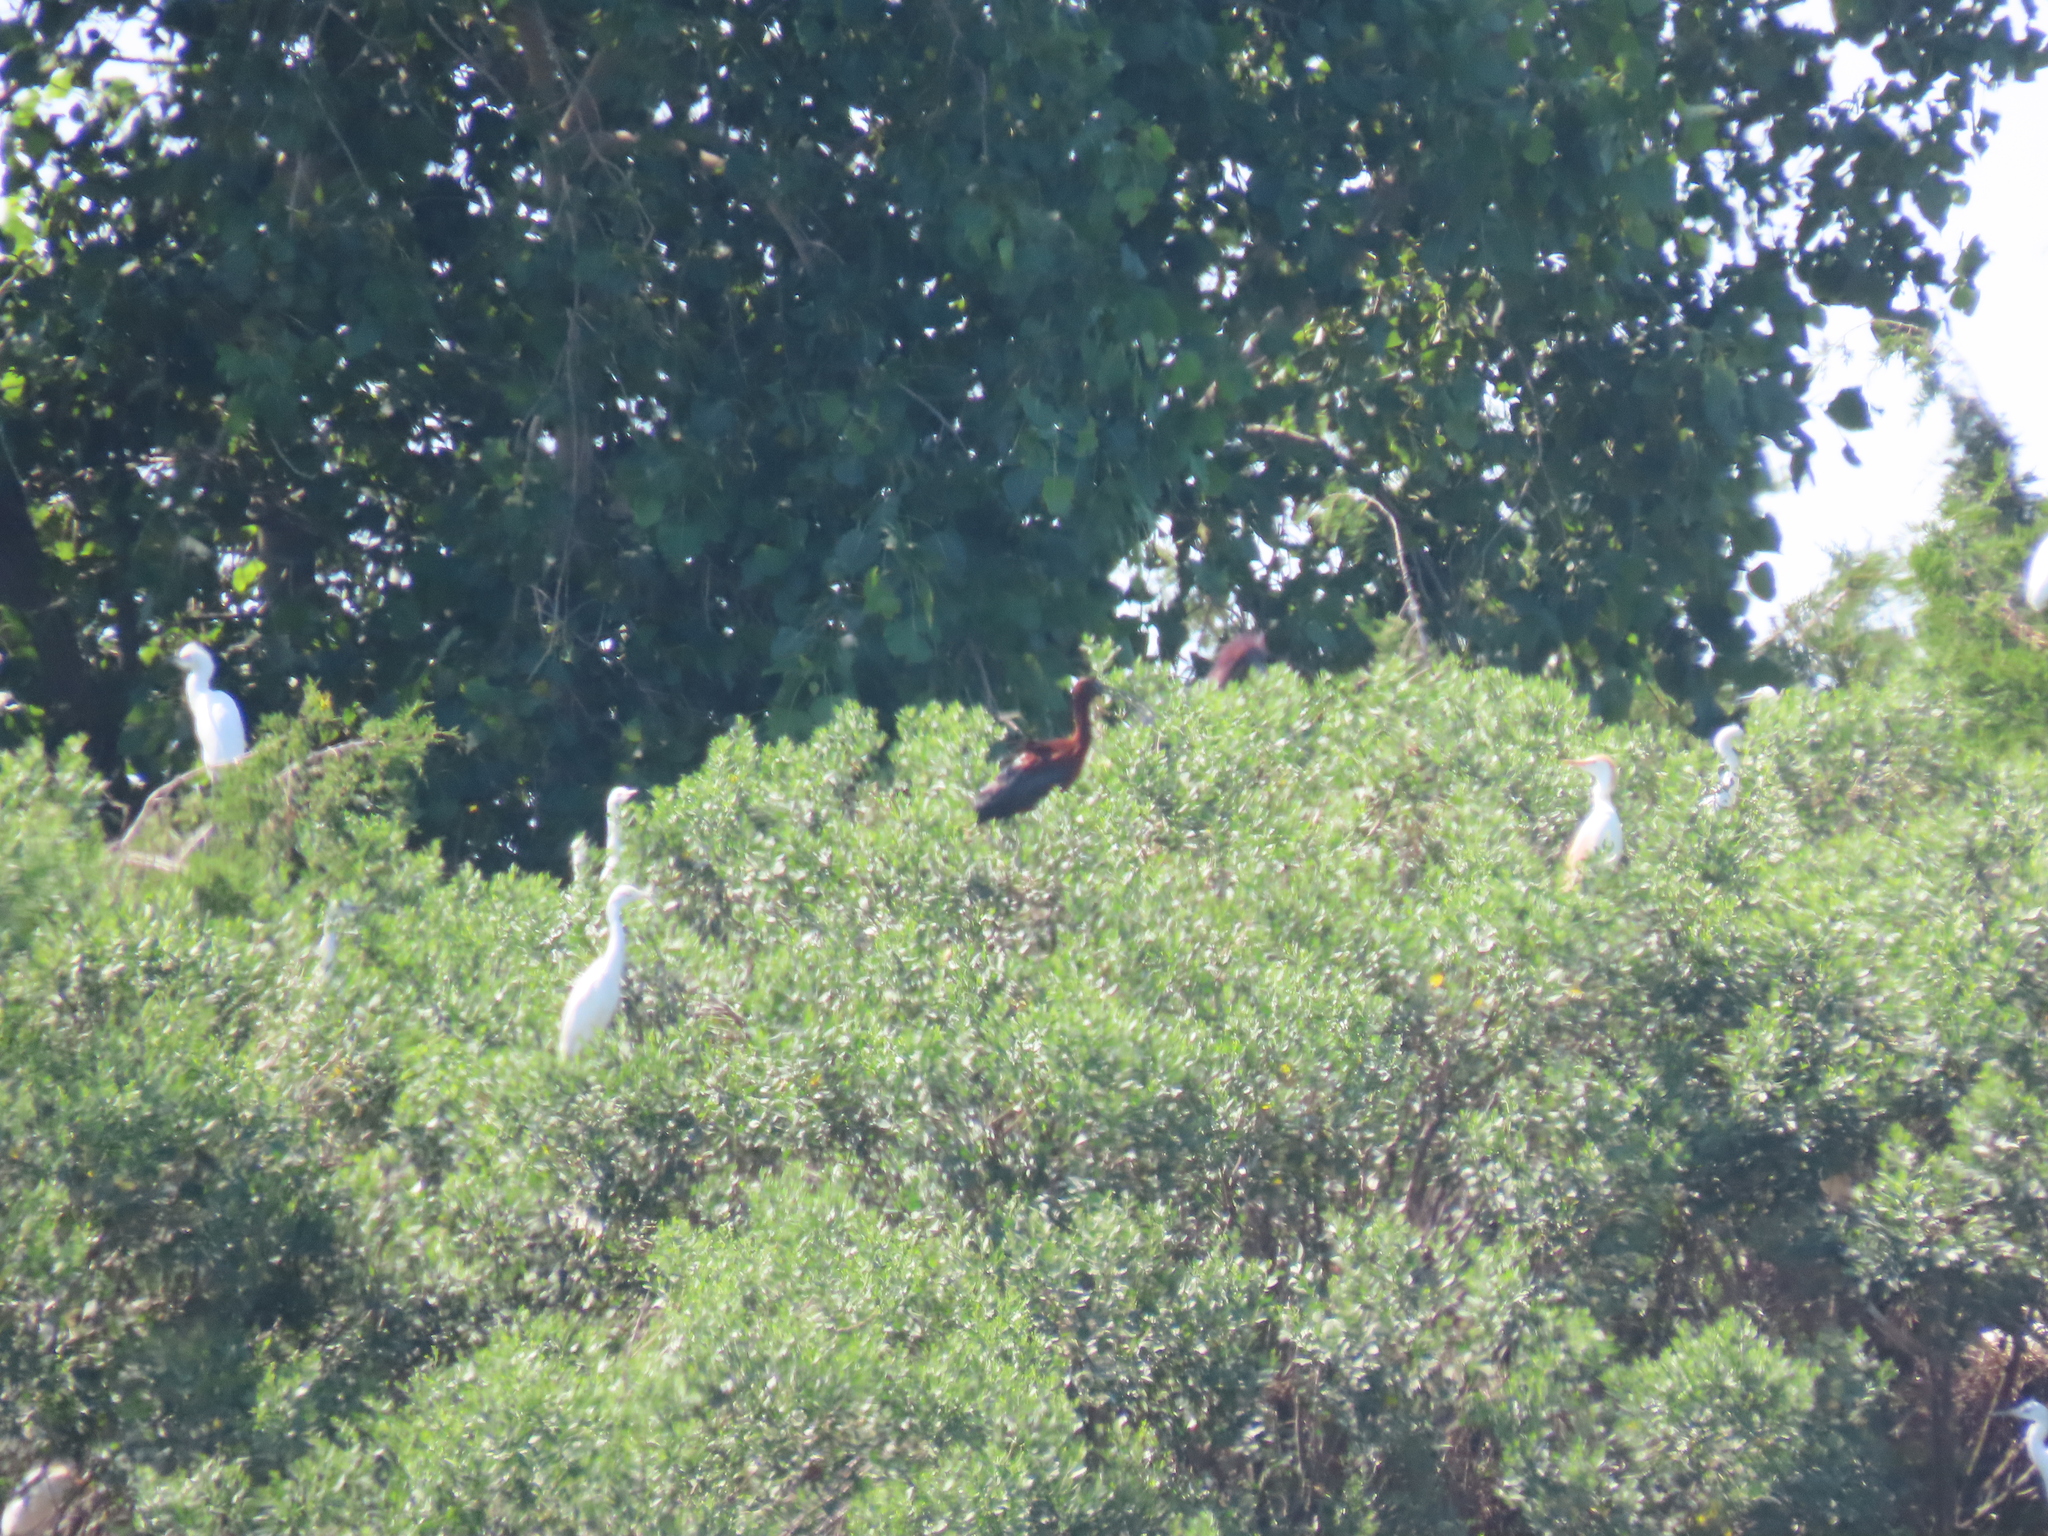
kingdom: Animalia
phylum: Chordata
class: Aves
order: Pelecaniformes
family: Ardeidae
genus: Bubulcus
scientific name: Bubulcus ibis
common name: Cattle egret
